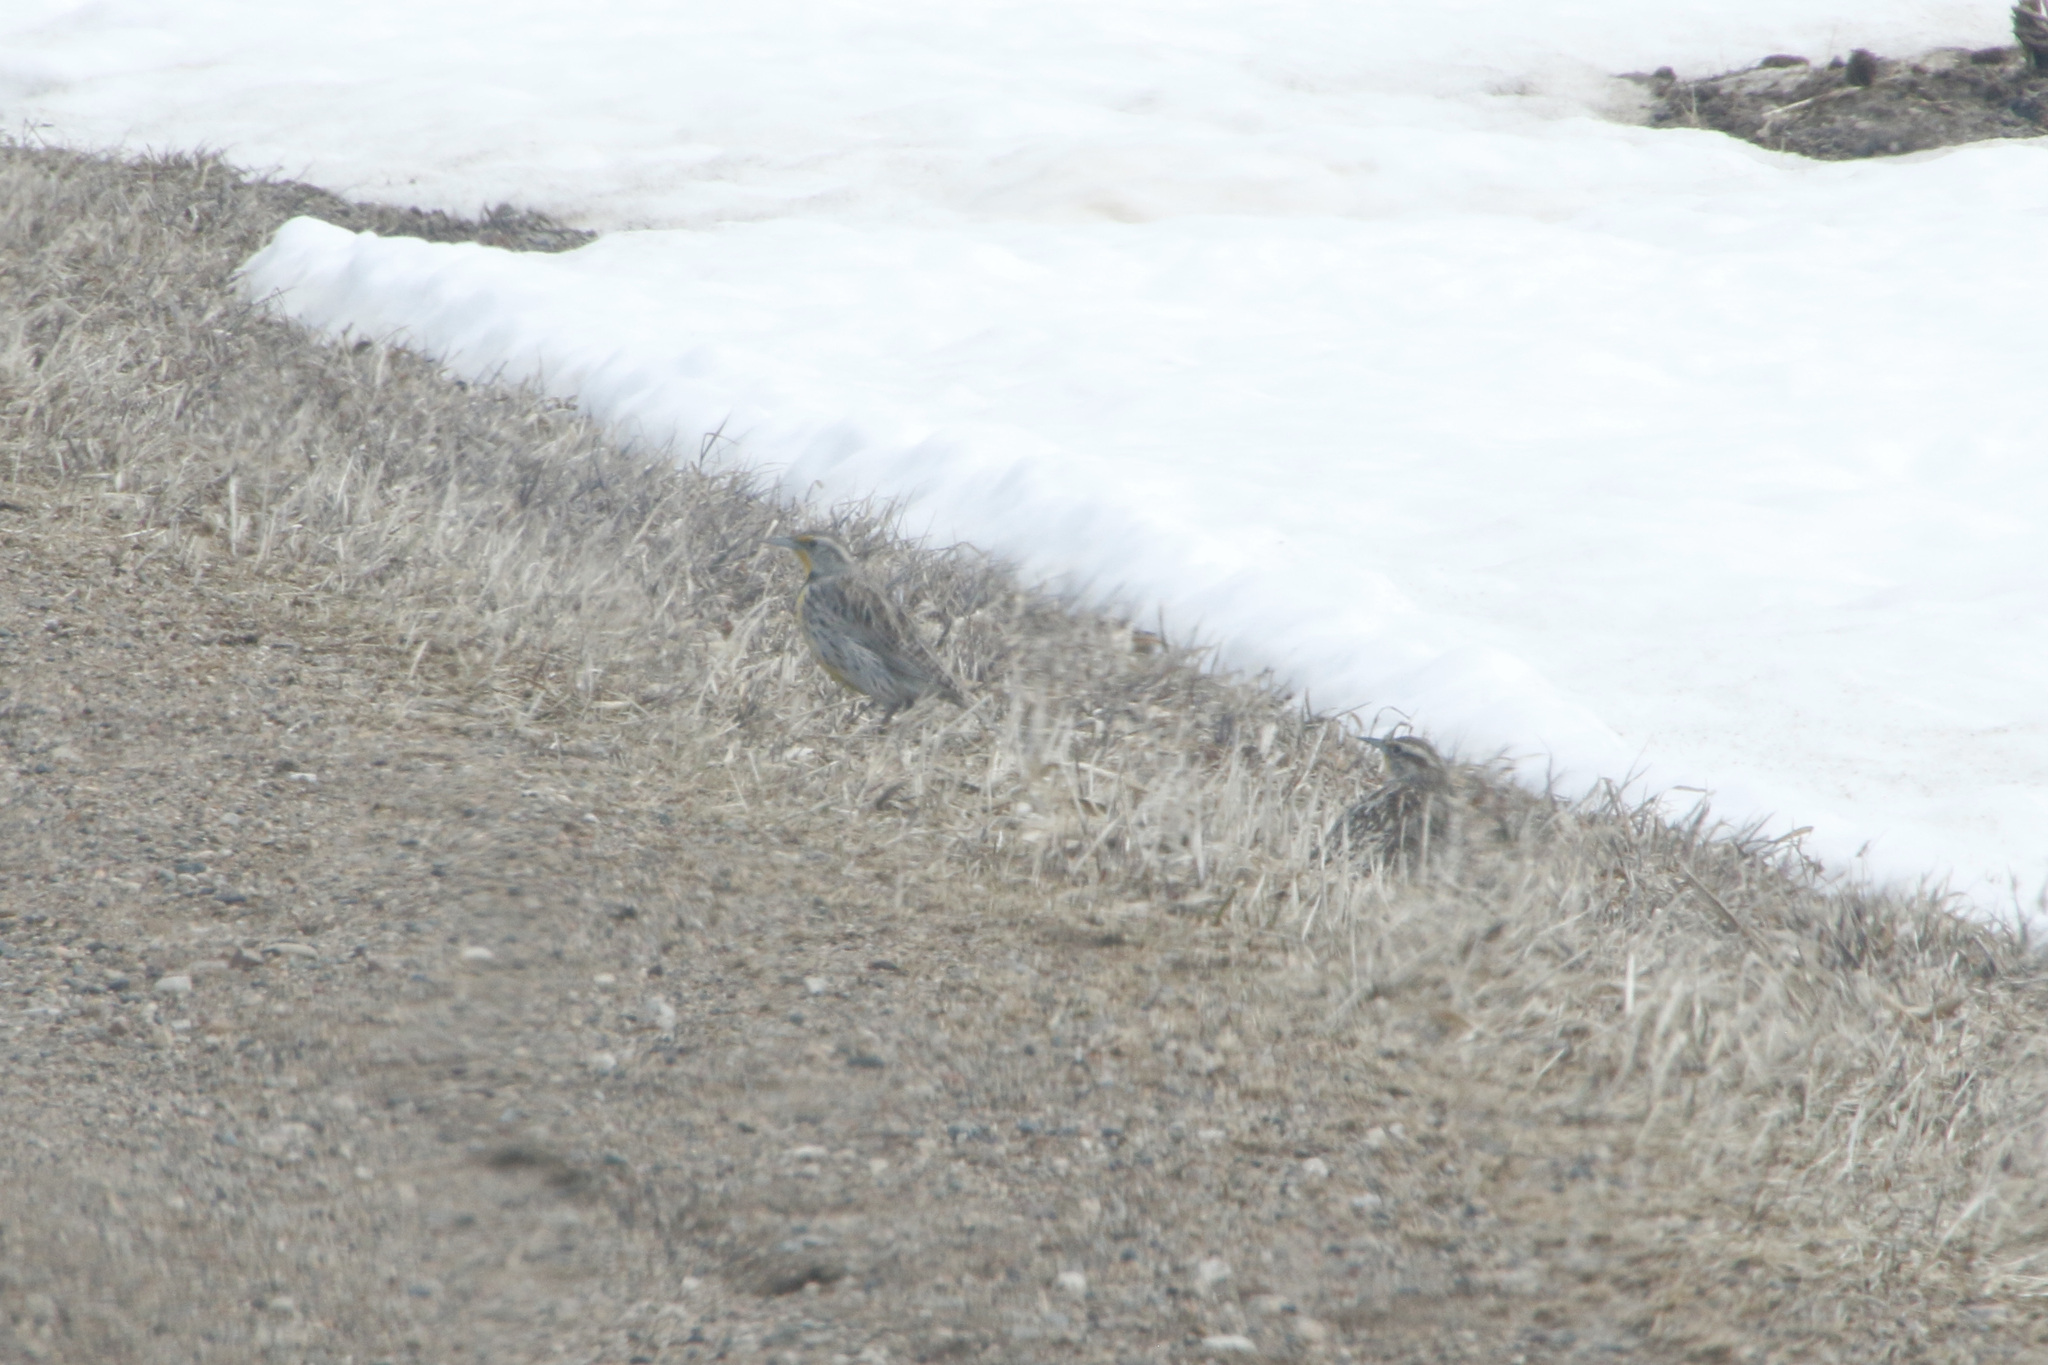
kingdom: Animalia
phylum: Chordata
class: Aves
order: Passeriformes
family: Icteridae
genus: Sturnella
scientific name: Sturnella neglecta
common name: Western meadowlark
